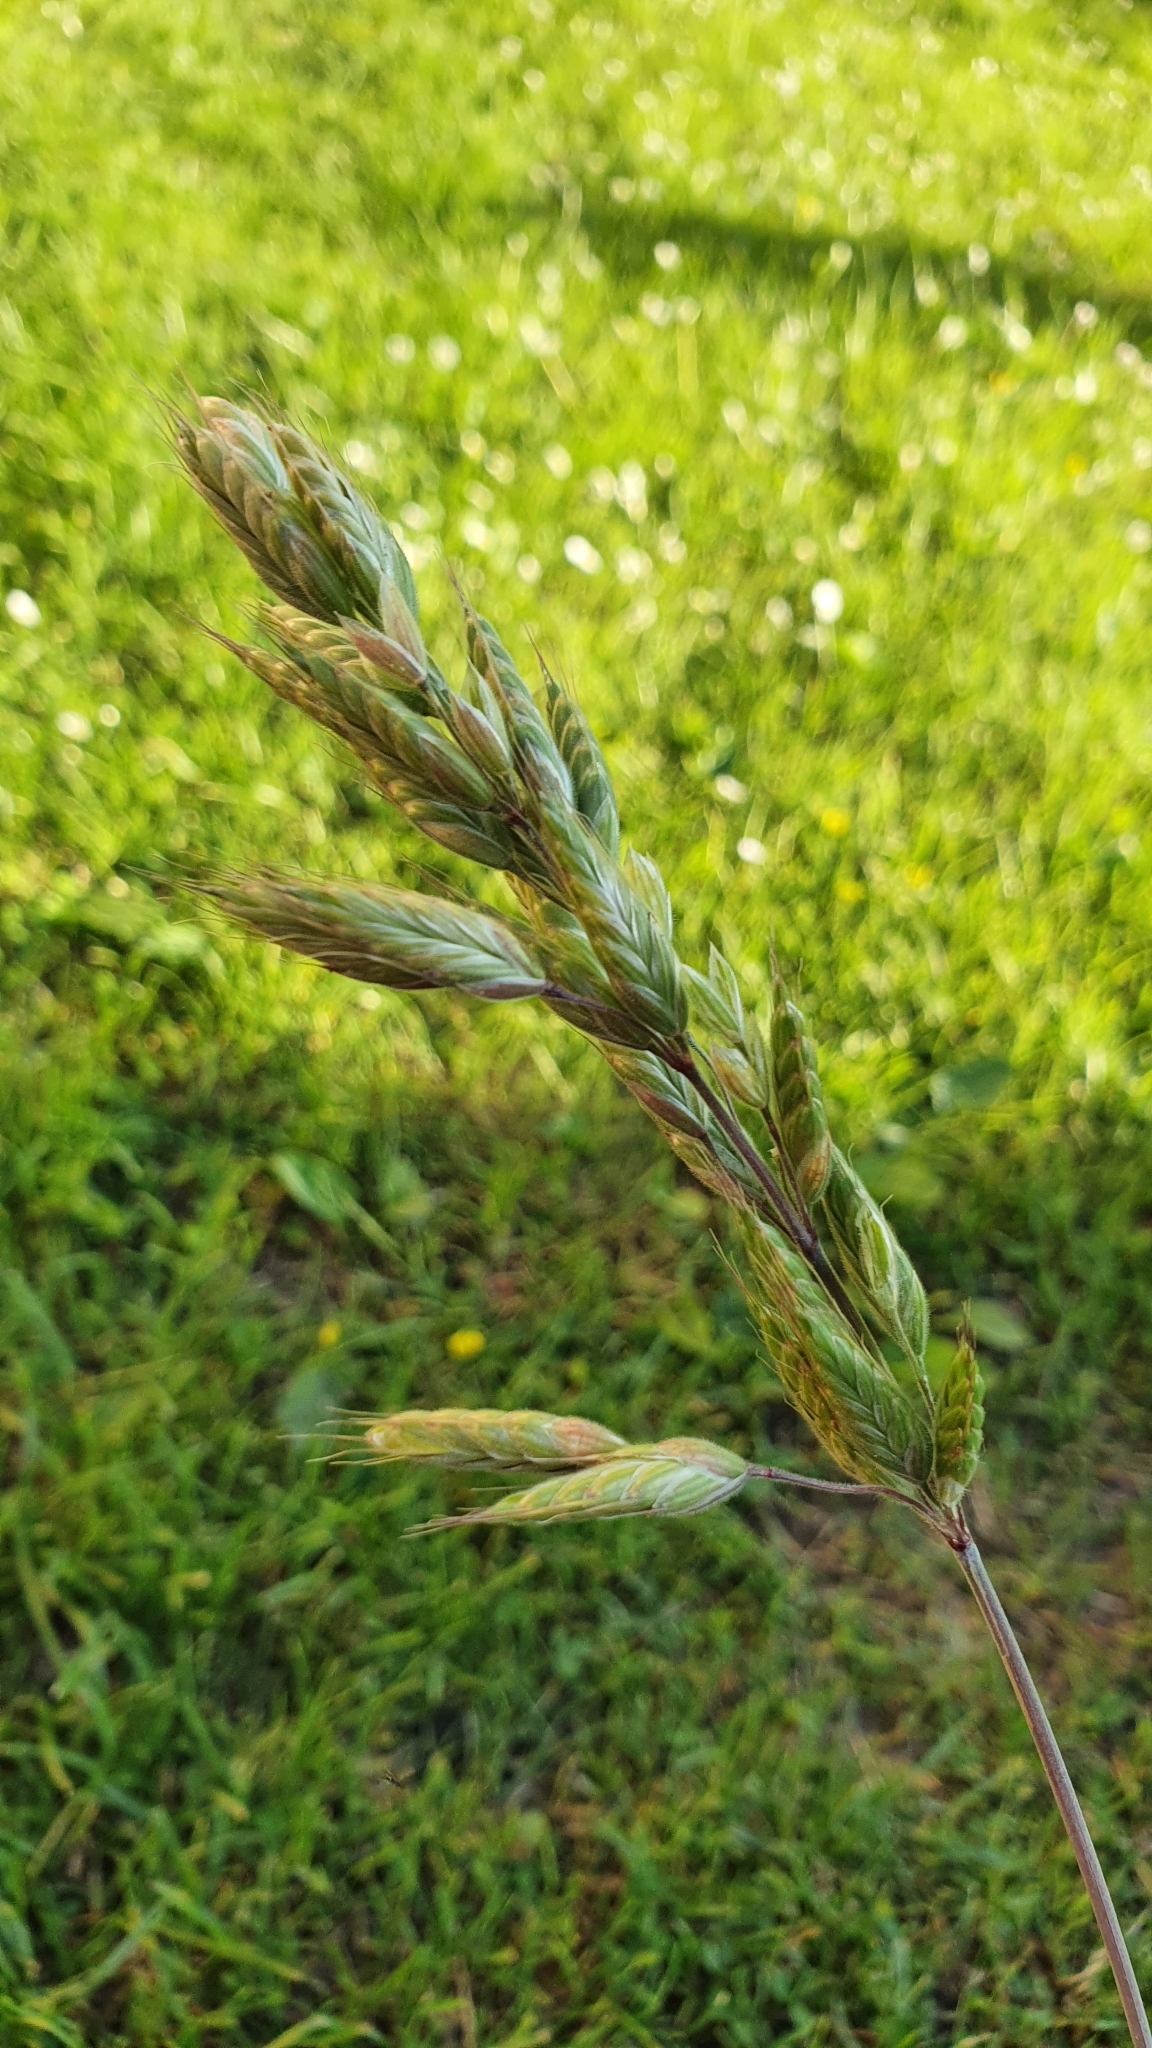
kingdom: Plantae
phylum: Tracheophyta
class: Liliopsida
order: Poales
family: Poaceae
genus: Bromus
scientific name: Bromus hordeaceus
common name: Soft brome
